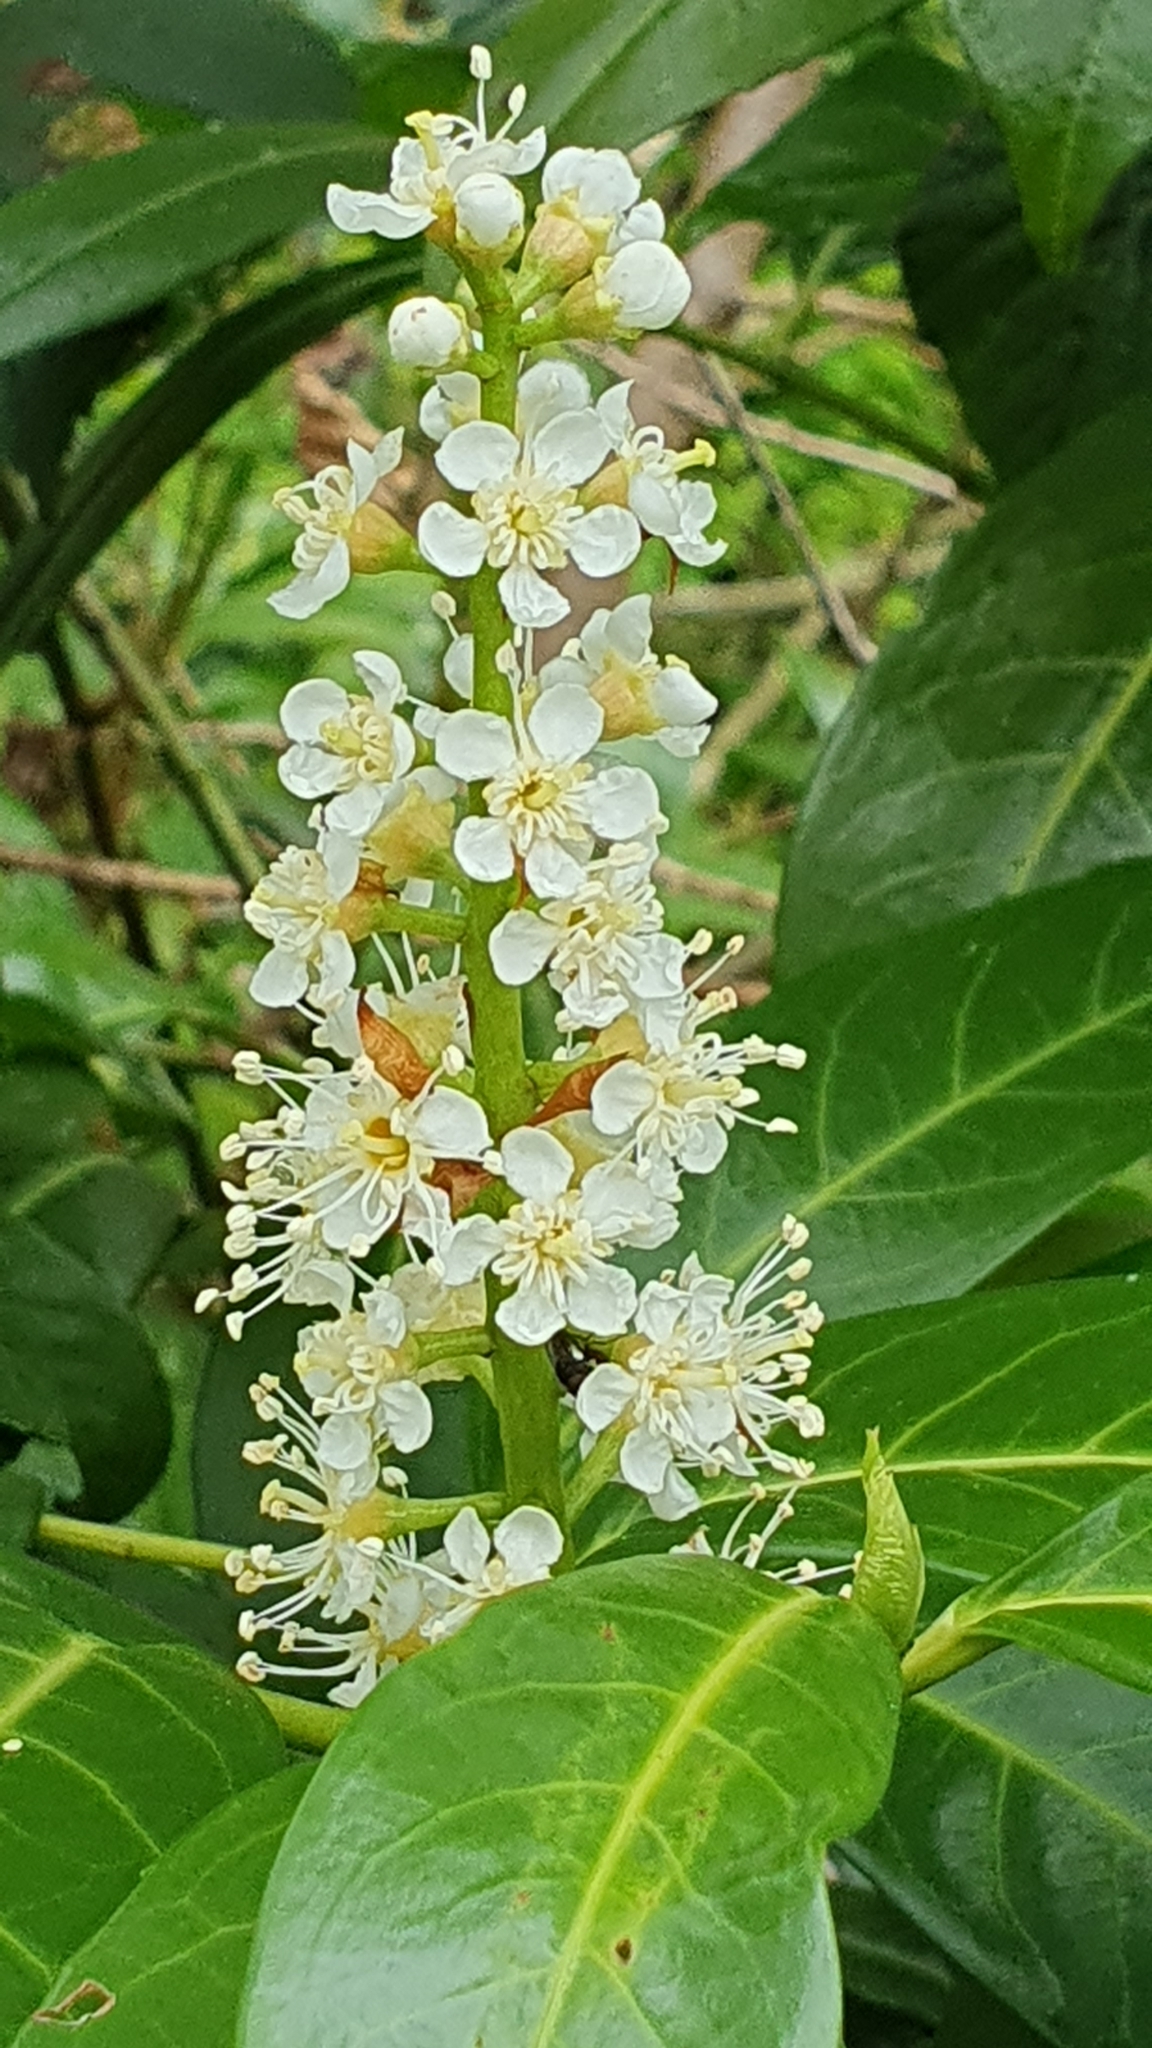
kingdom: Plantae
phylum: Tracheophyta
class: Magnoliopsida
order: Rosales
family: Rosaceae
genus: Prunus
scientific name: Prunus laurocerasus
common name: Cherry laurel
